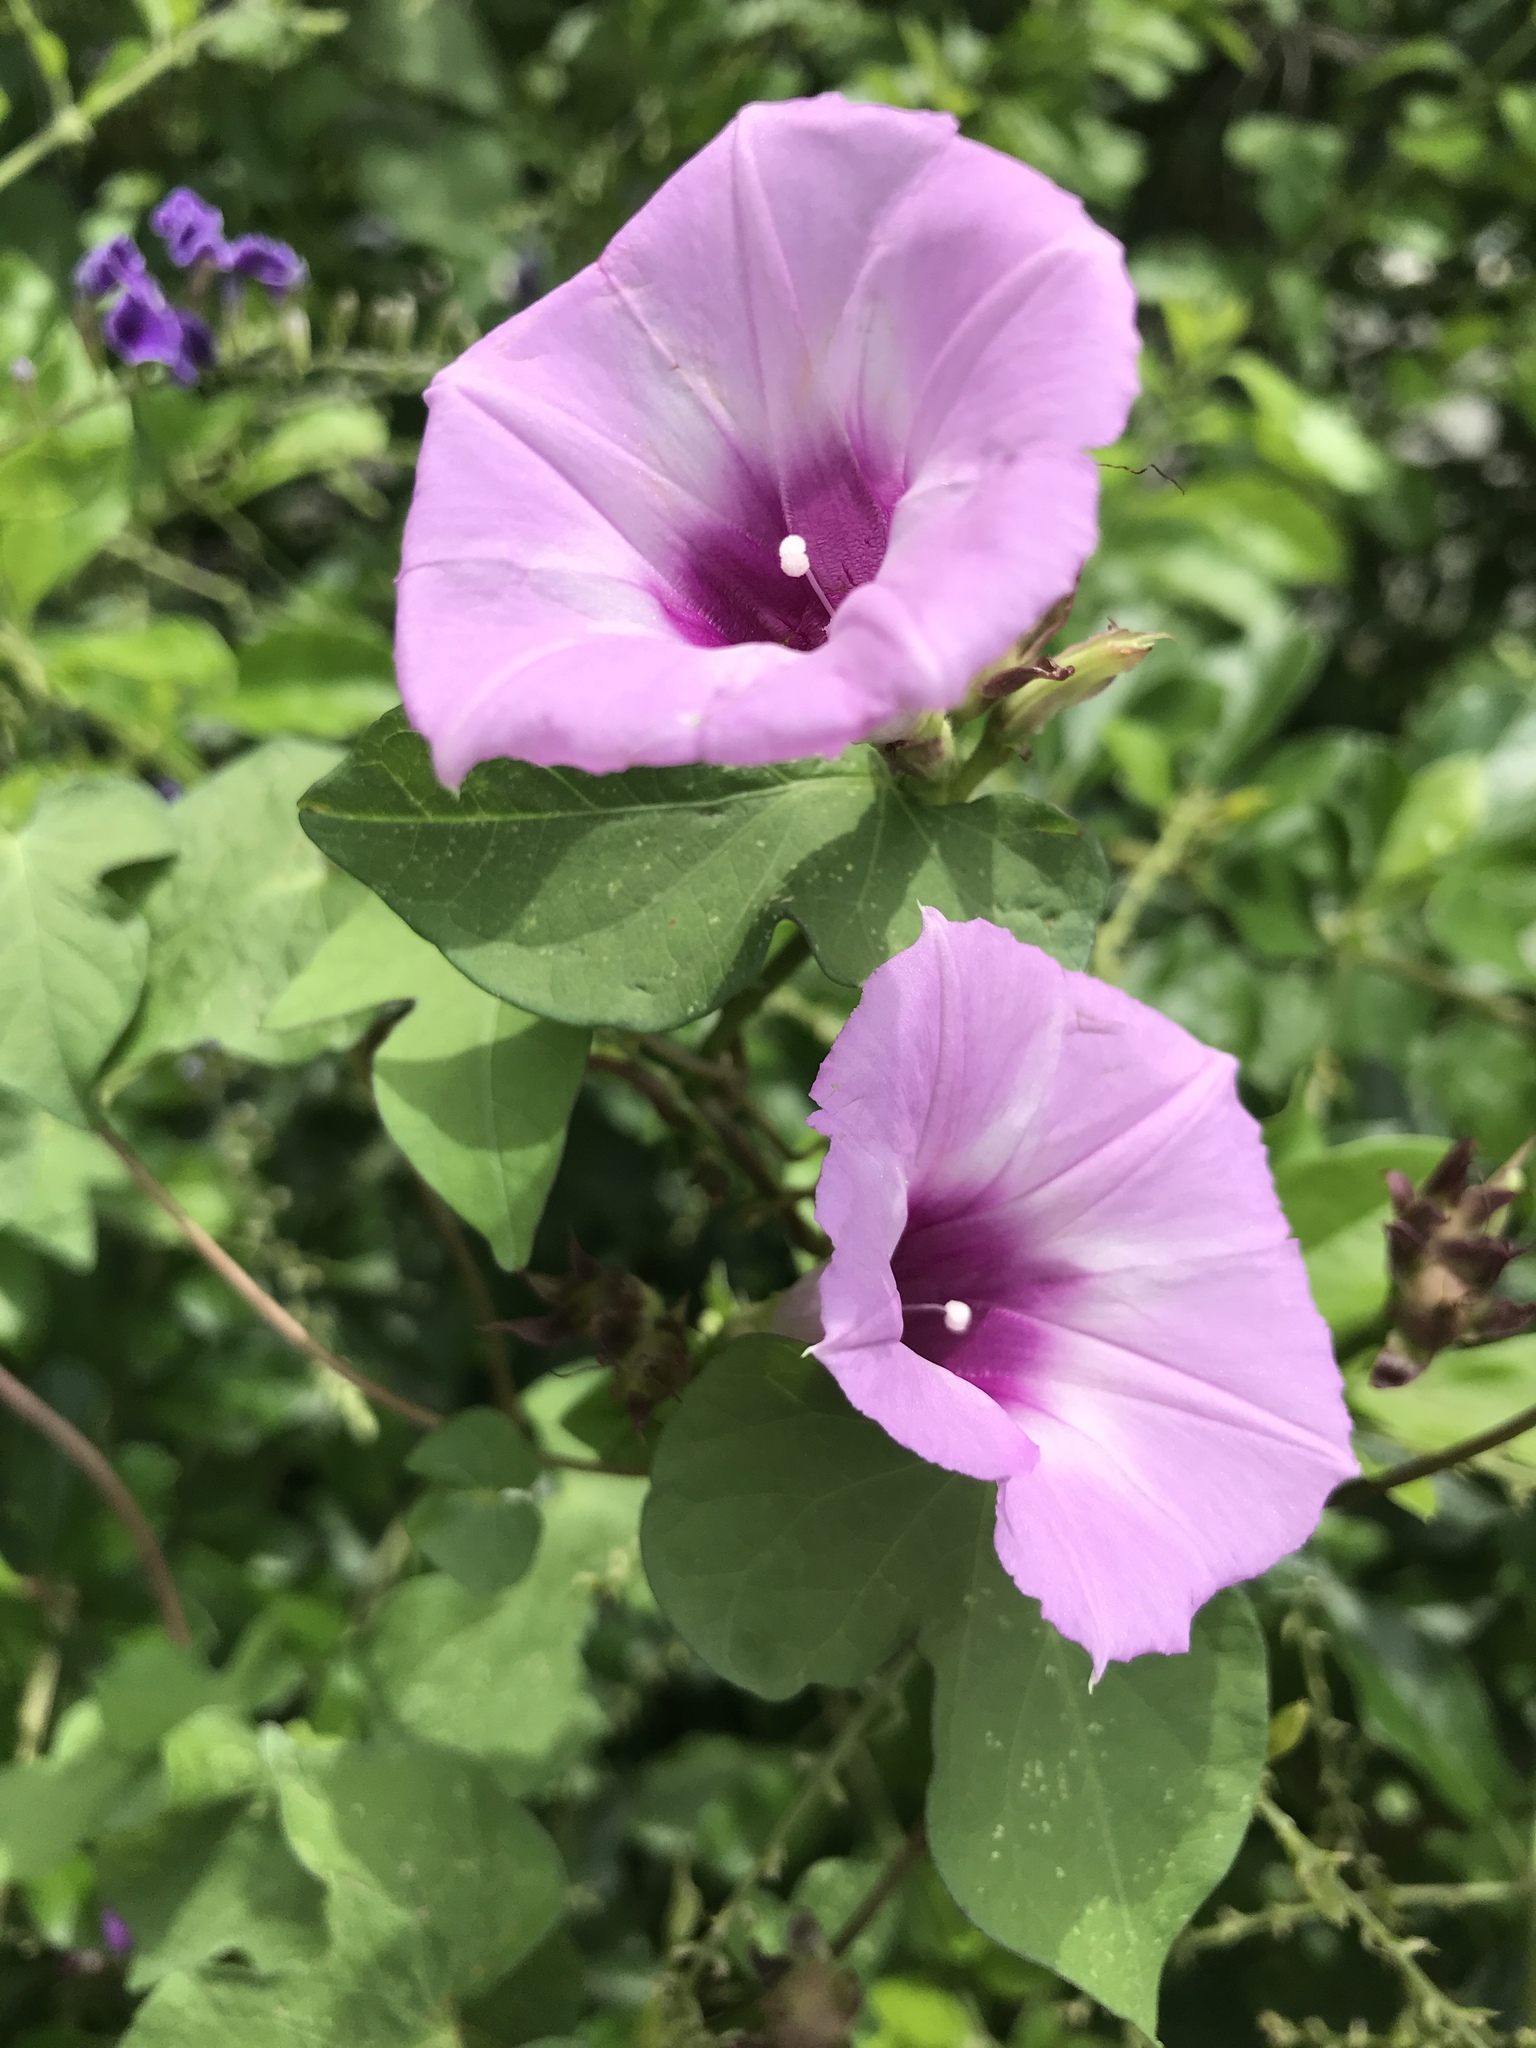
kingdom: Plantae
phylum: Tracheophyta
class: Magnoliopsida
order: Solanales
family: Convolvulaceae
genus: Ipomoea
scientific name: Ipomoea cordatotriloba
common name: Cotton morning glory
